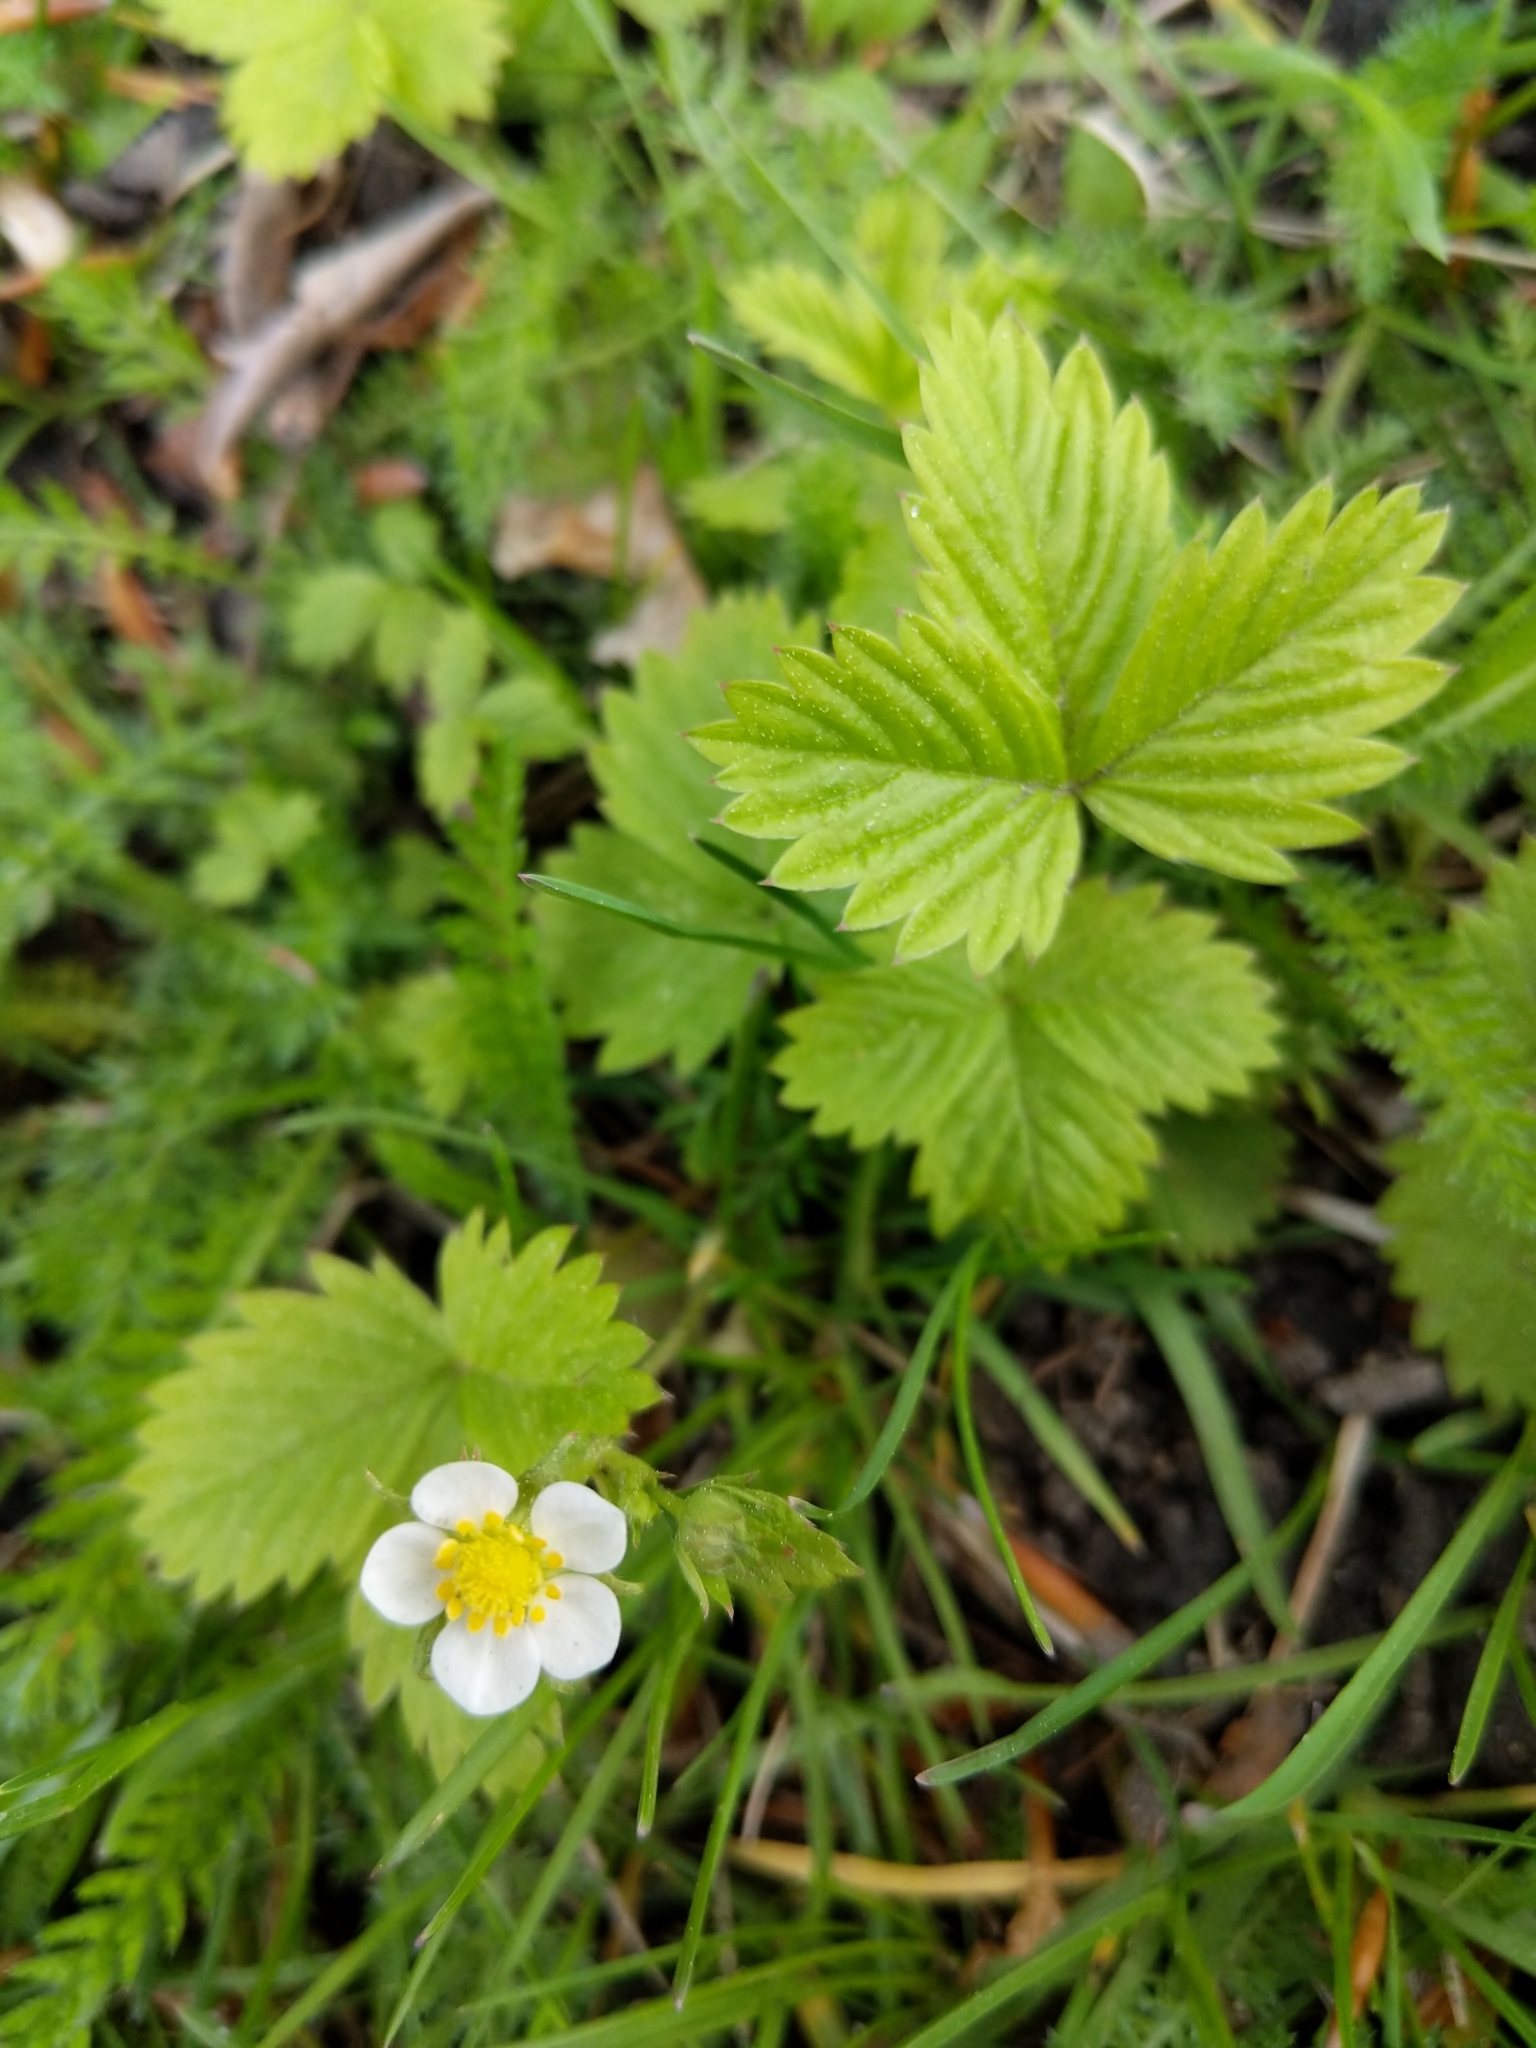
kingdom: Plantae
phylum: Tracheophyta
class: Magnoliopsida
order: Rosales
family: Rosaceae
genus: Fragaria
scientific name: Fragaria vesca
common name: Wild strawberry
